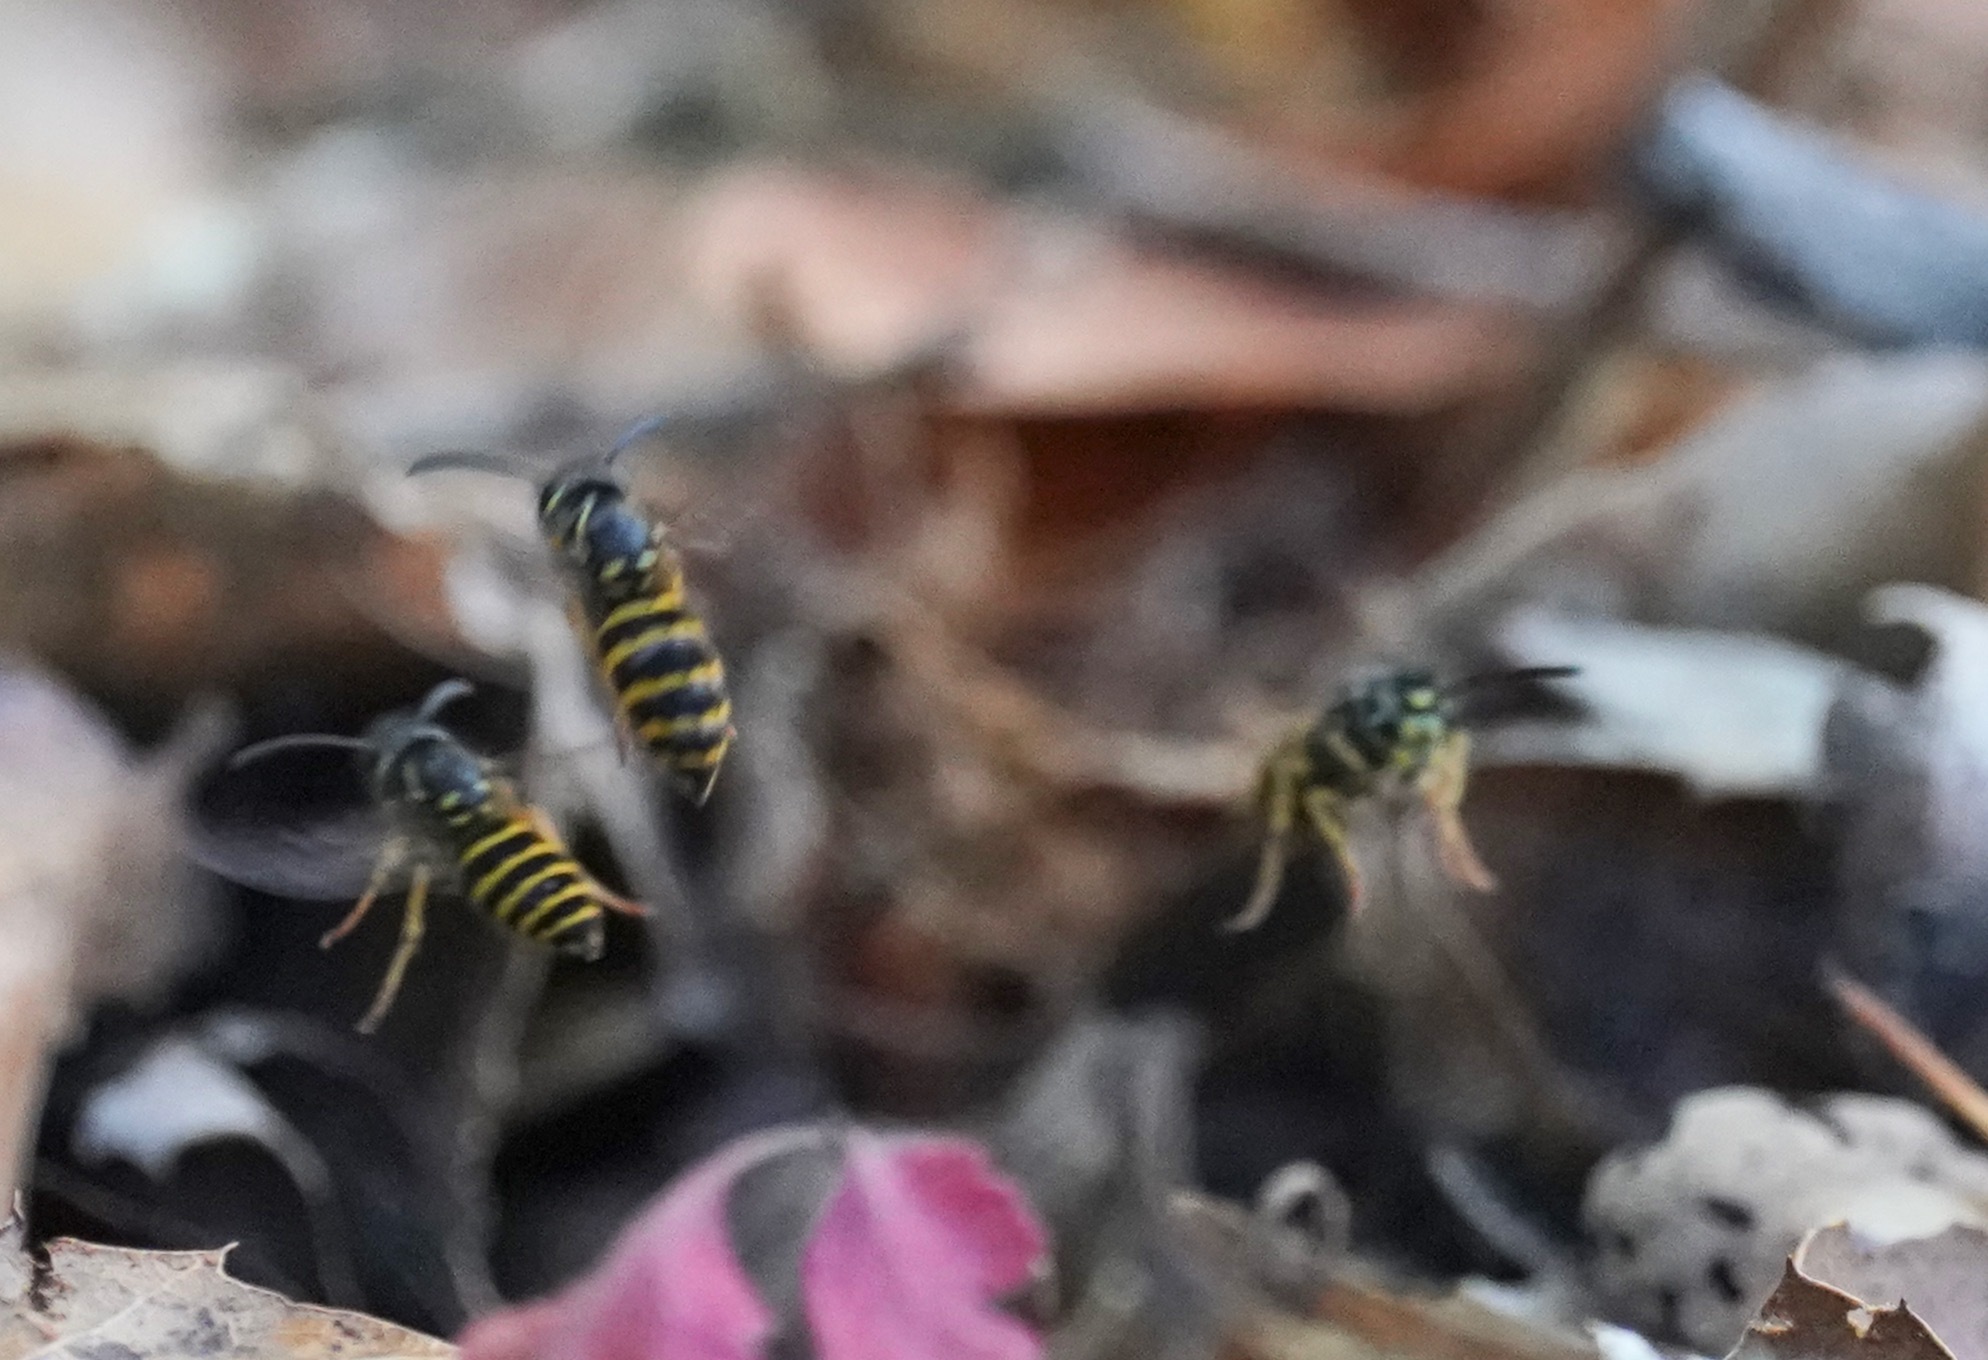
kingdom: Animalia
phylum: Arthropoda
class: Insecta
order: Hymenoptera
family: Vespidae
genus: Vespula
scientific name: Vespula alascensis
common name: Alaska yellowjacket
